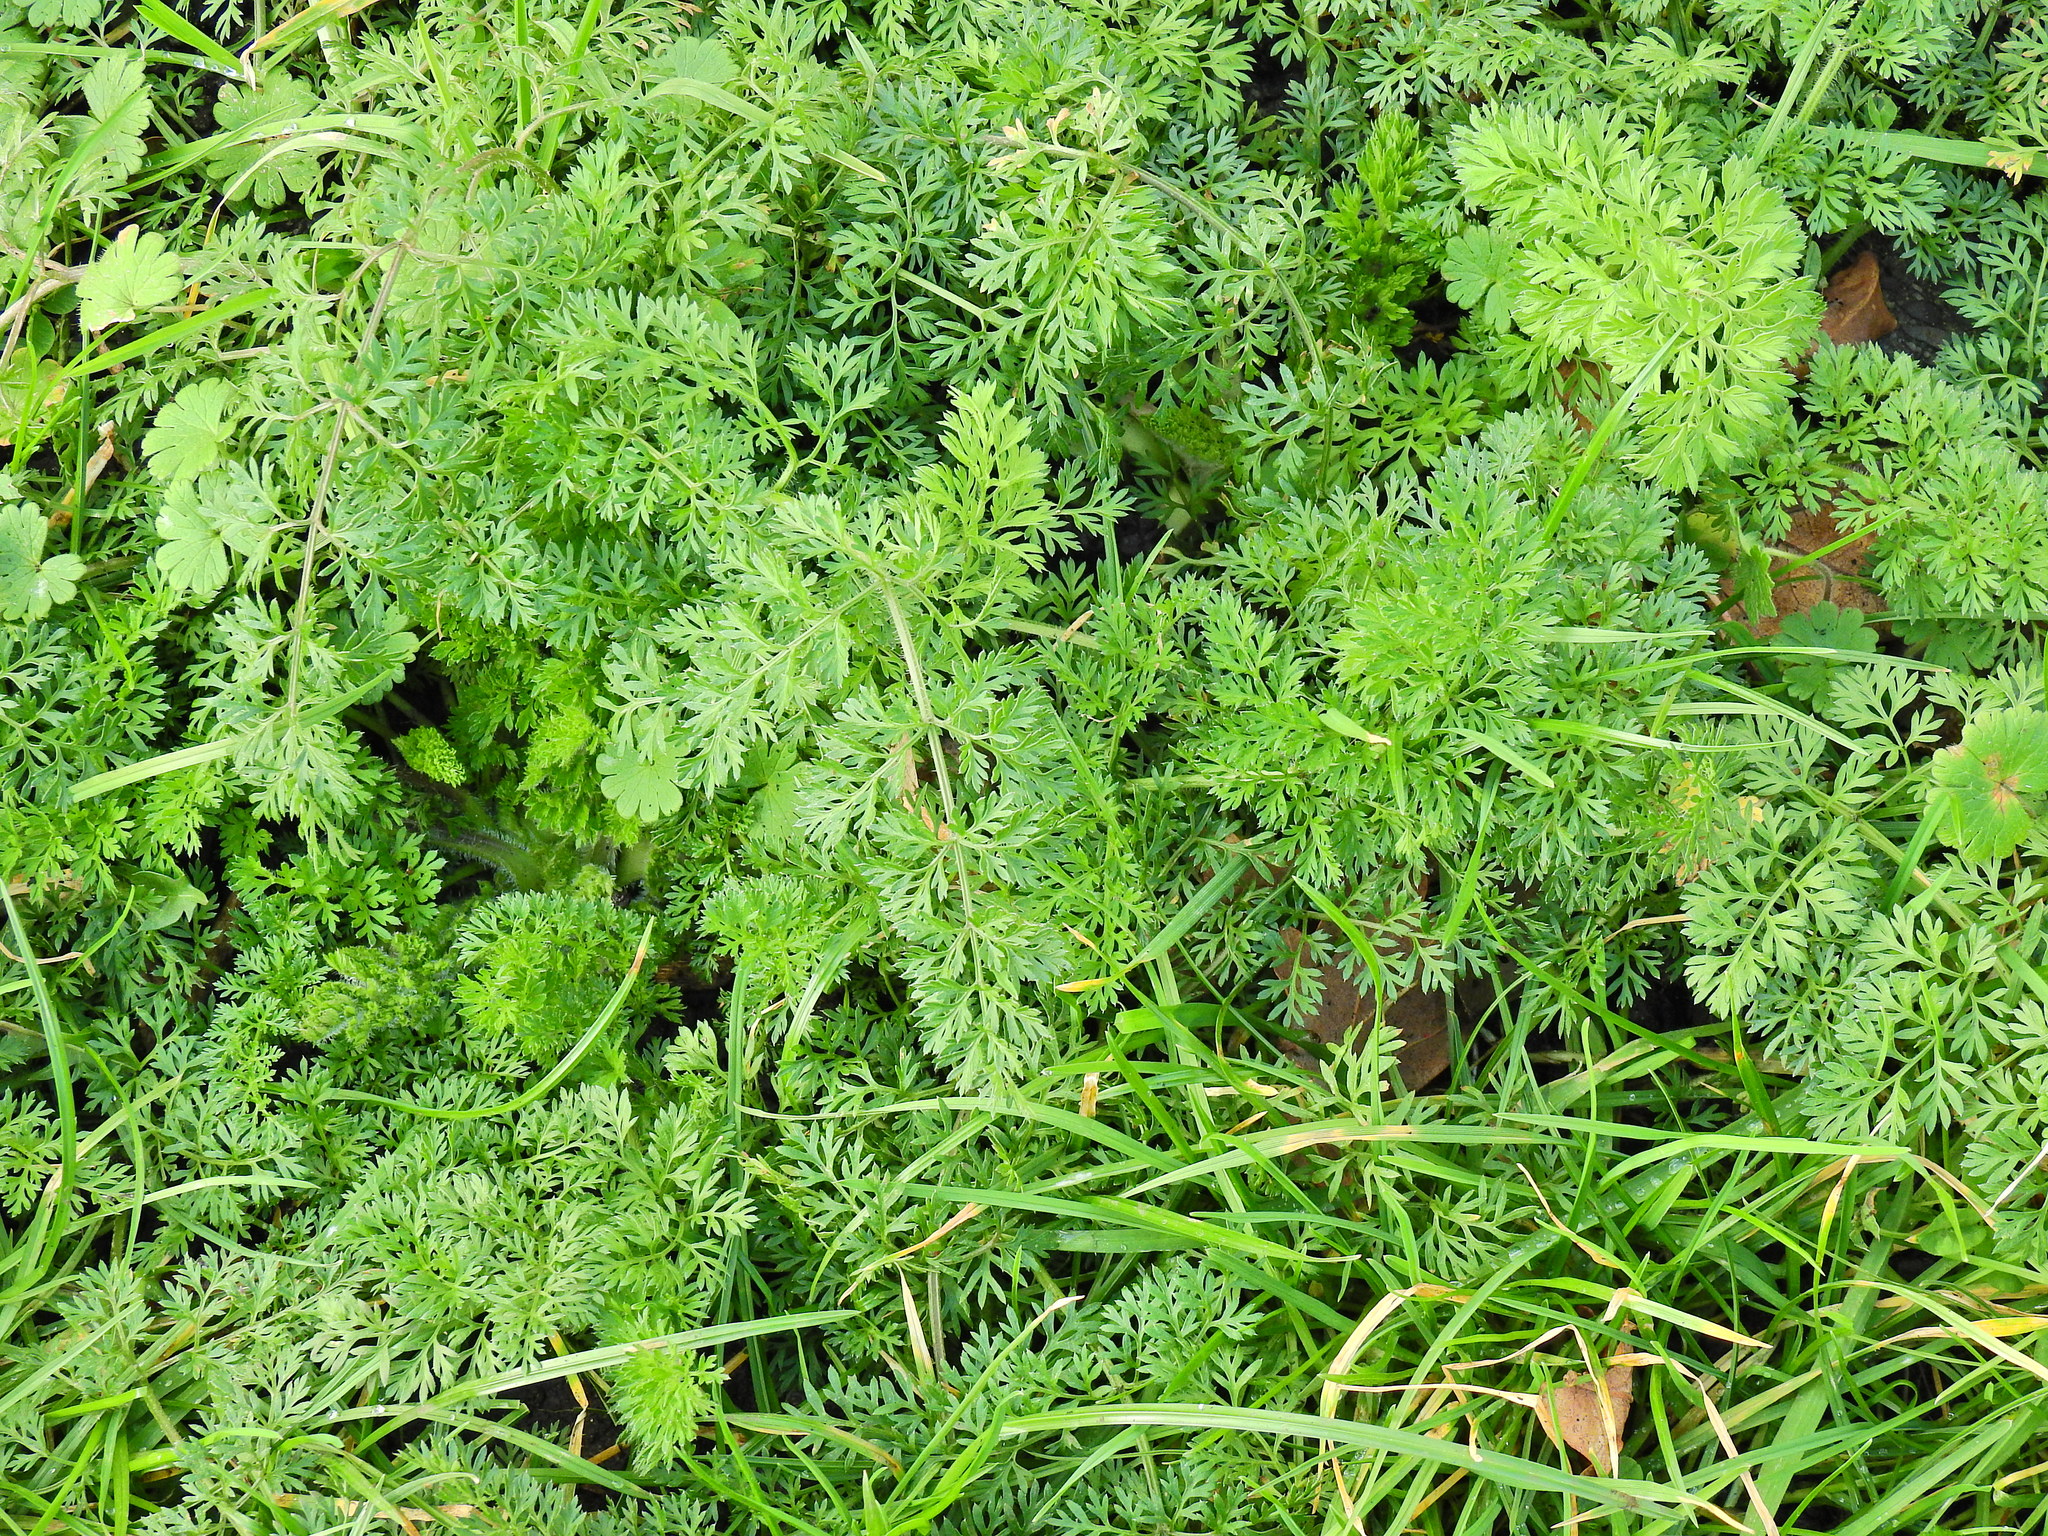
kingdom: Plantae
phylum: Tracheophyta
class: Magnoliopsida
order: Apiales
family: Apiaceae
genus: Aethusa
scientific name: Aethusa cynapium
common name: Fool's parsley
